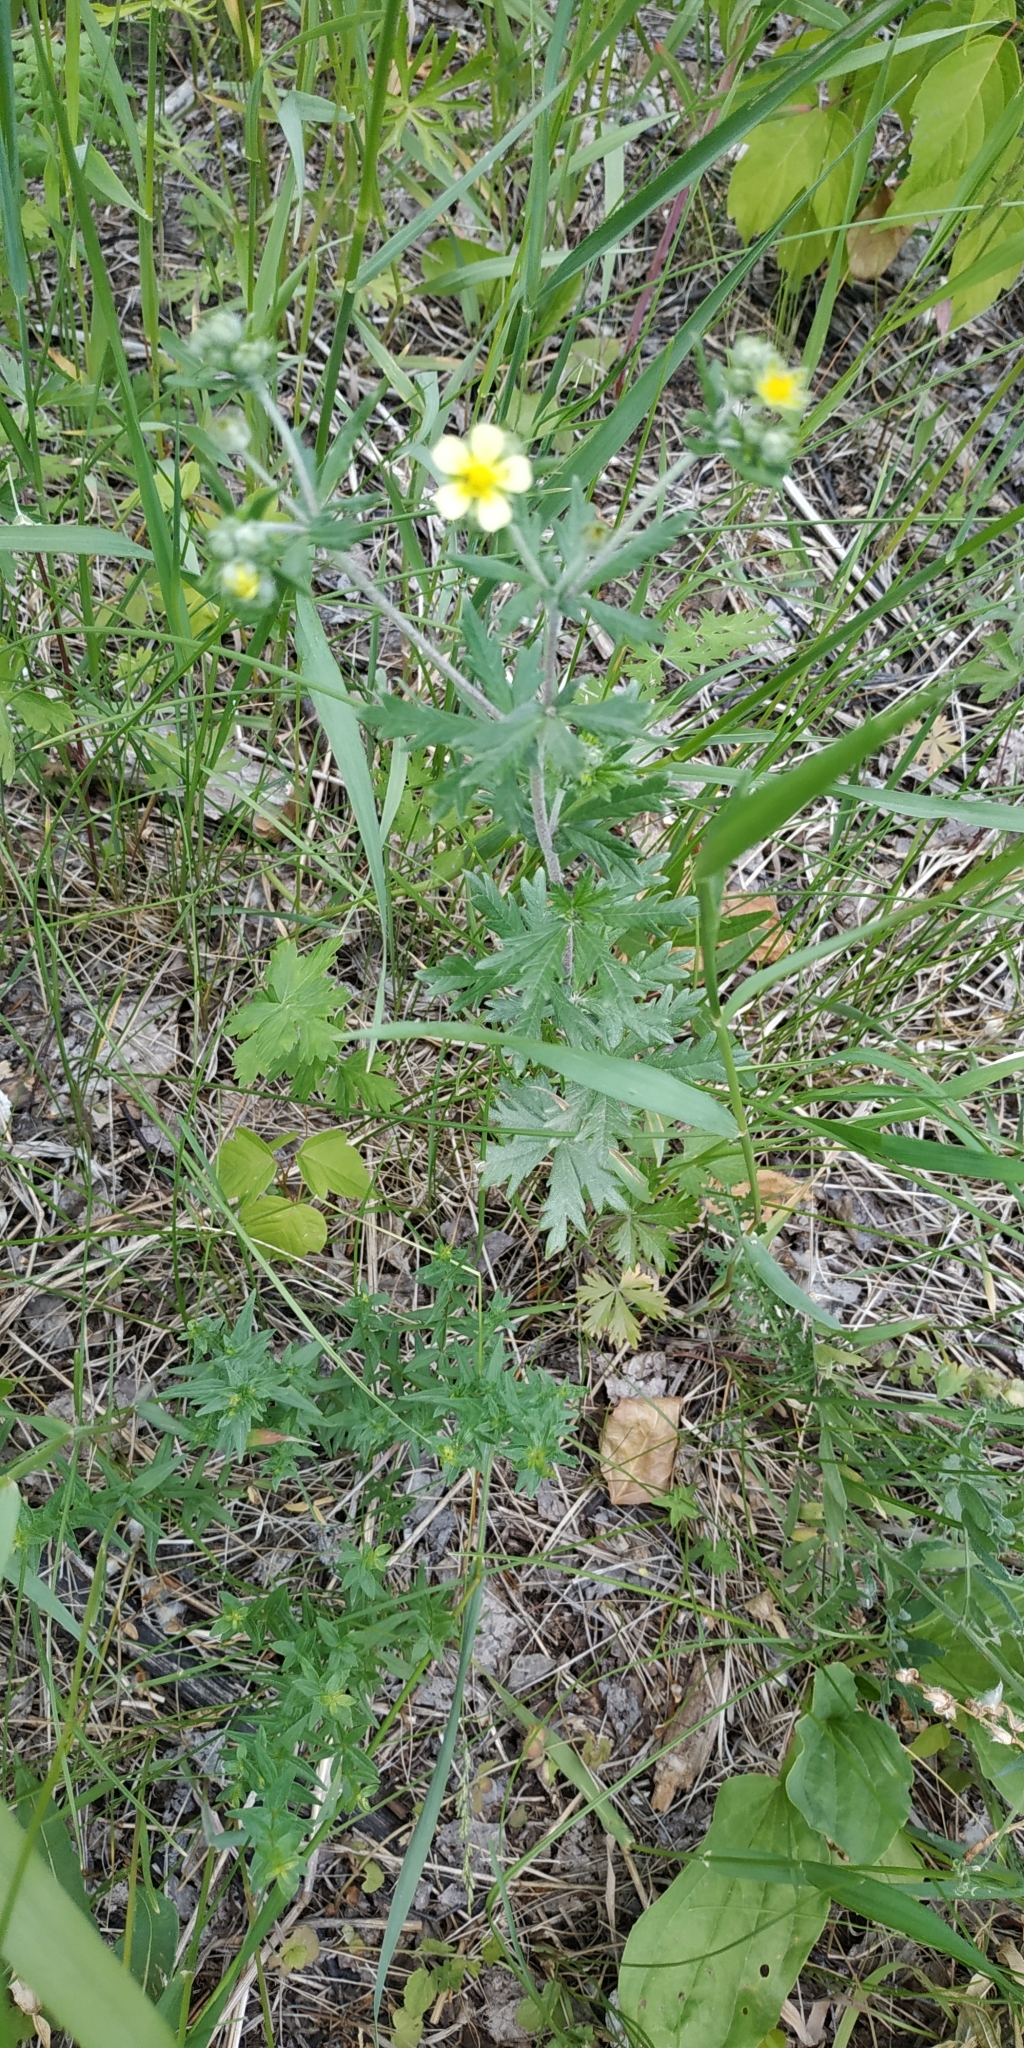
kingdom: Plantae
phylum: Tracheophyta
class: Magnoliopsida
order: Rosales
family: Rosaceae
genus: Potentilla
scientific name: Potentilla argentea
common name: Hoary cinquefoil
